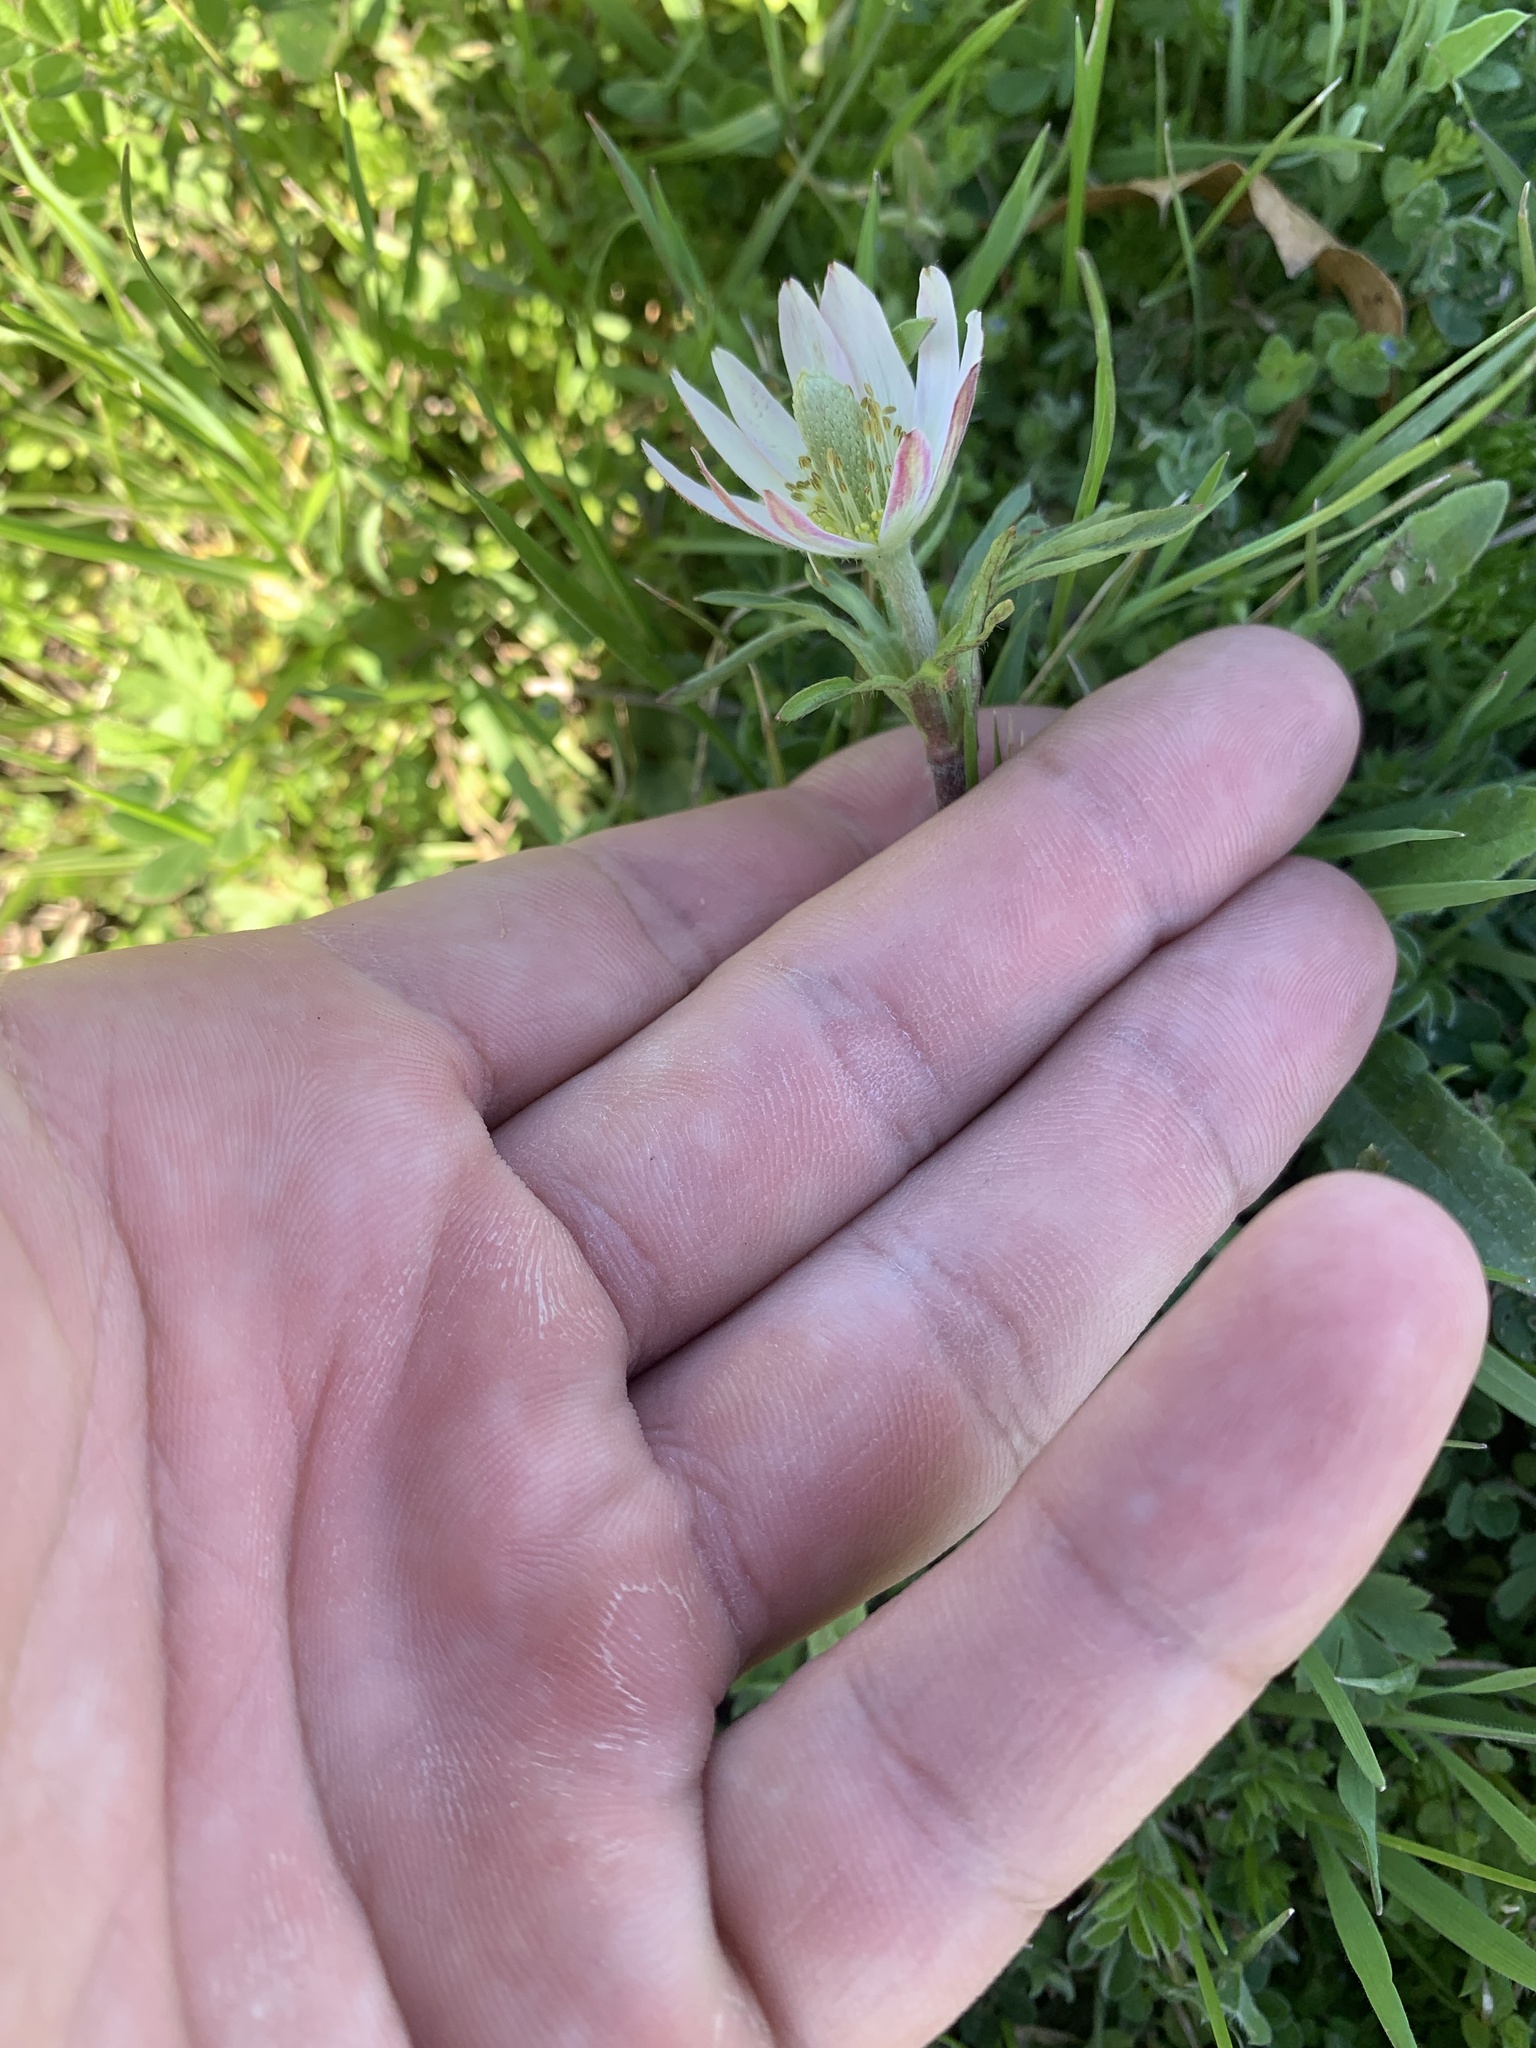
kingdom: Plantae
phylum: Tracheophyta
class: Magnoliopsida
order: Ranunculales
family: Ranunculaceae
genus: Anemone
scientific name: Anemone berlandieri
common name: Ten-petal anemone
